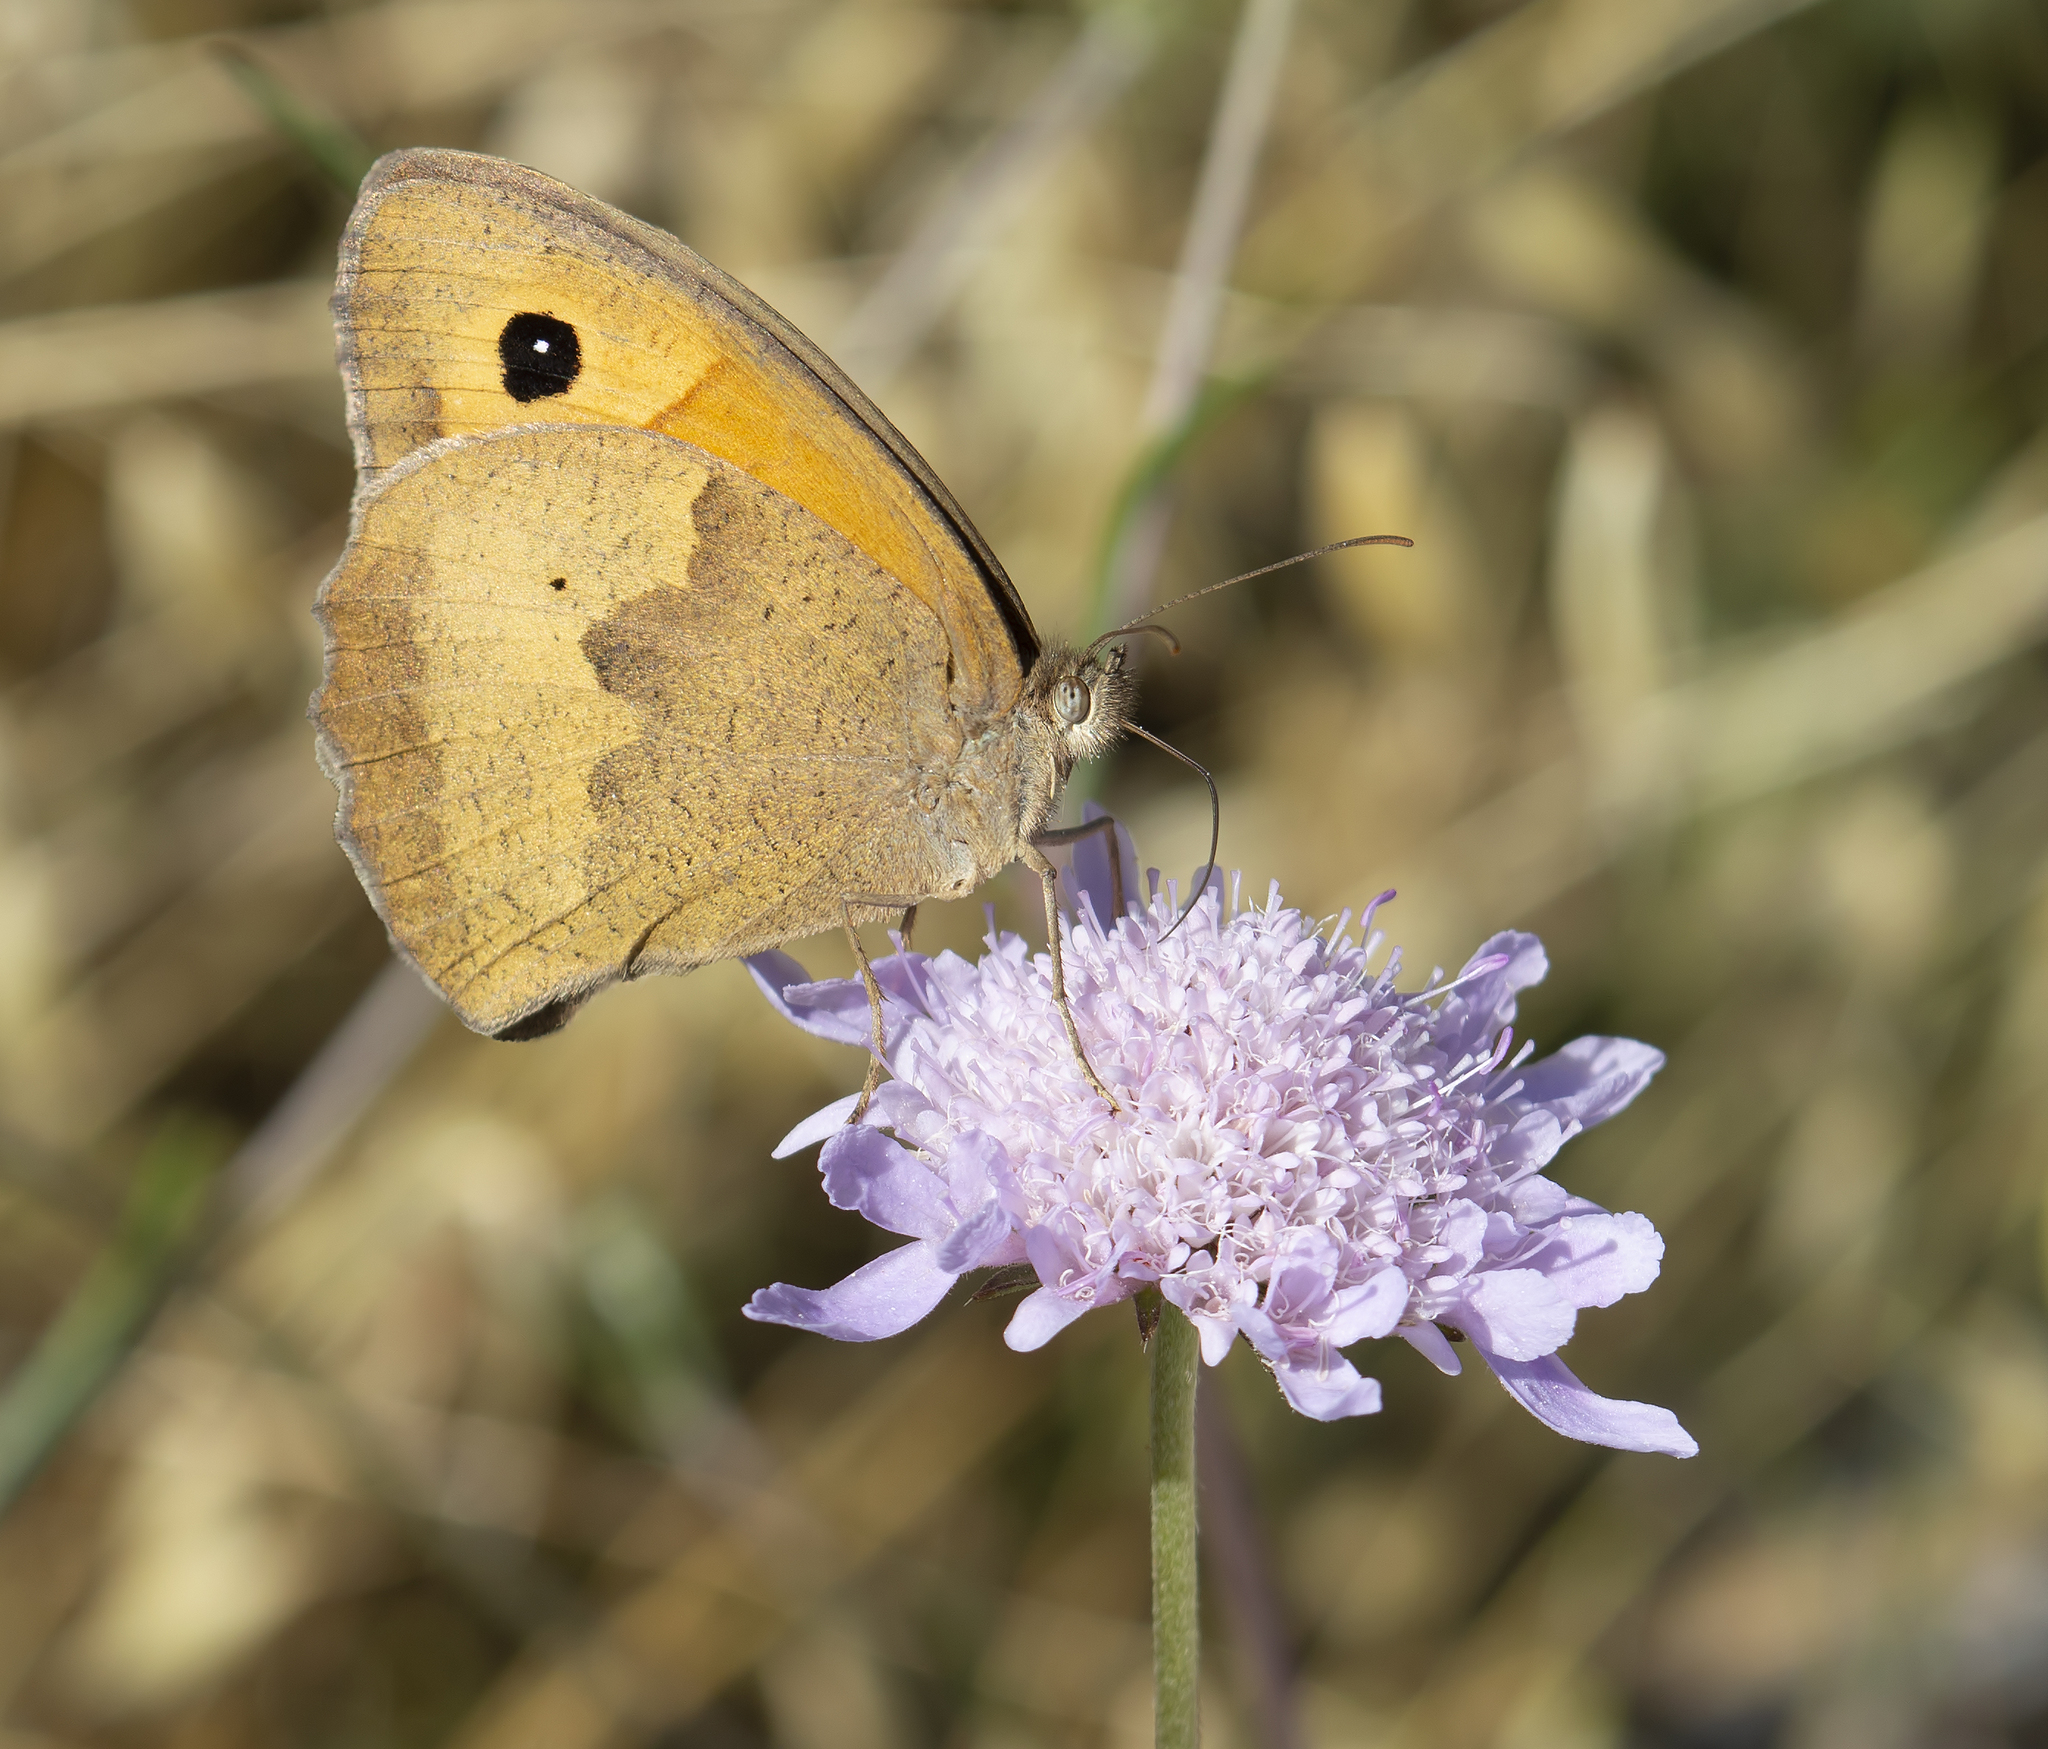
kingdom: Animalia
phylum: Arthropoda
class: Insecta
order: Lepidoptera
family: Nymphalidae
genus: Maniola
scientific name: Maniola jurtina
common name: Meadow brown
